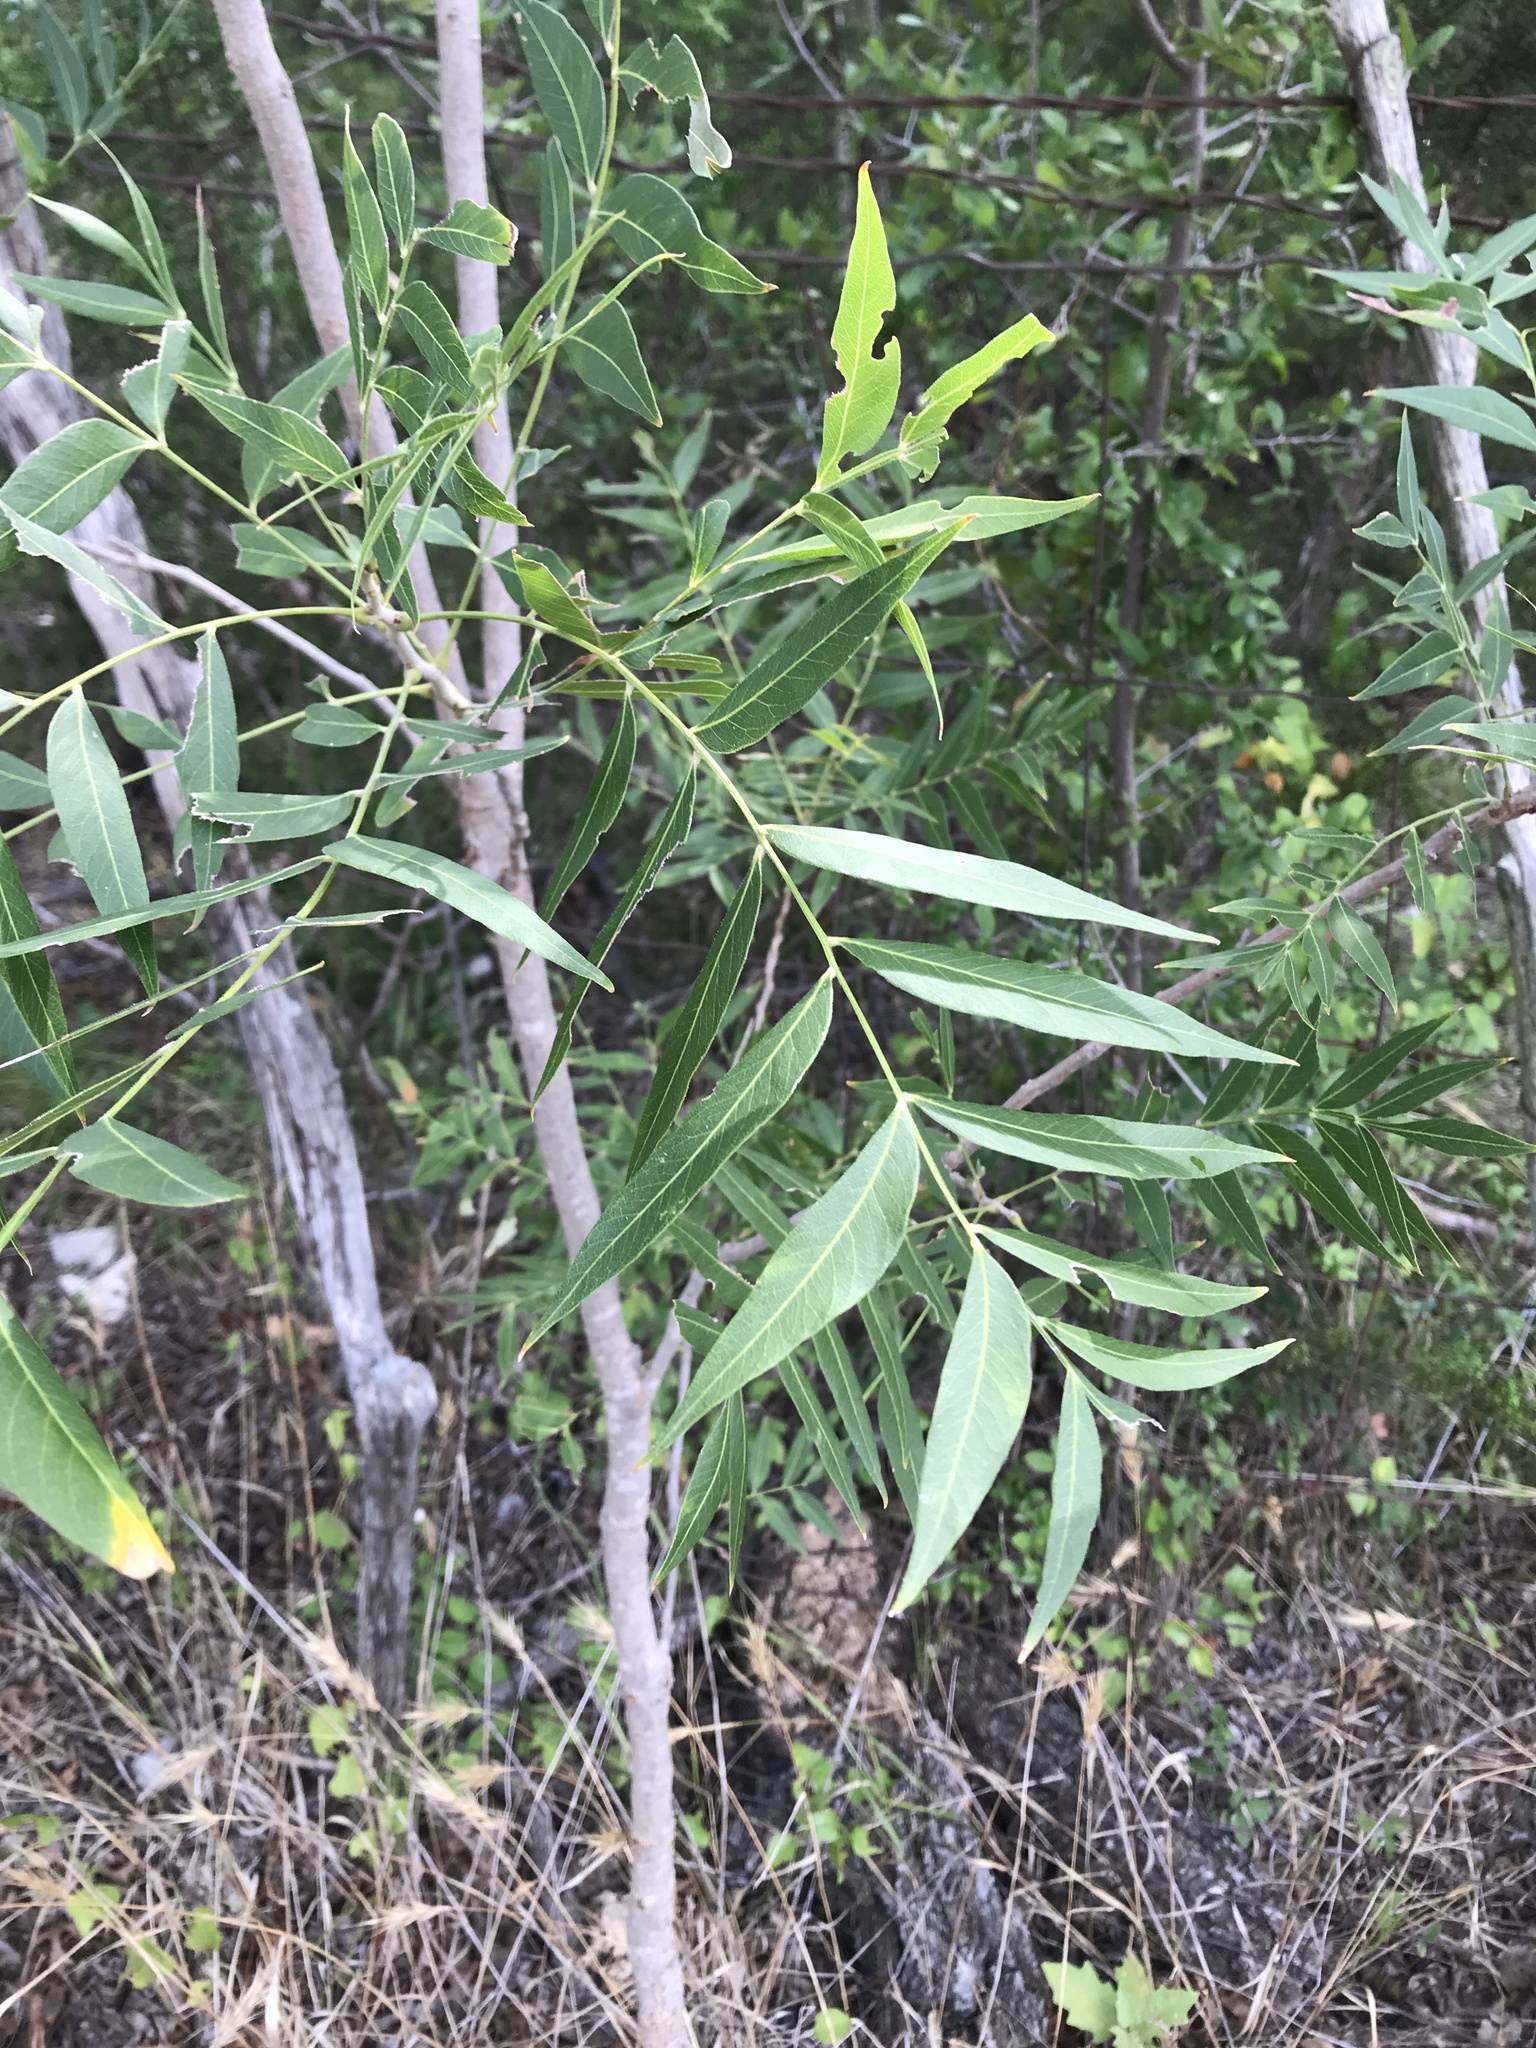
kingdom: Plantae
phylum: Tracheophyta
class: Magnoliopsida
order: Sapindales
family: Sapindaceae
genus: Sapindus
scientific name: Sapindus drummondii
